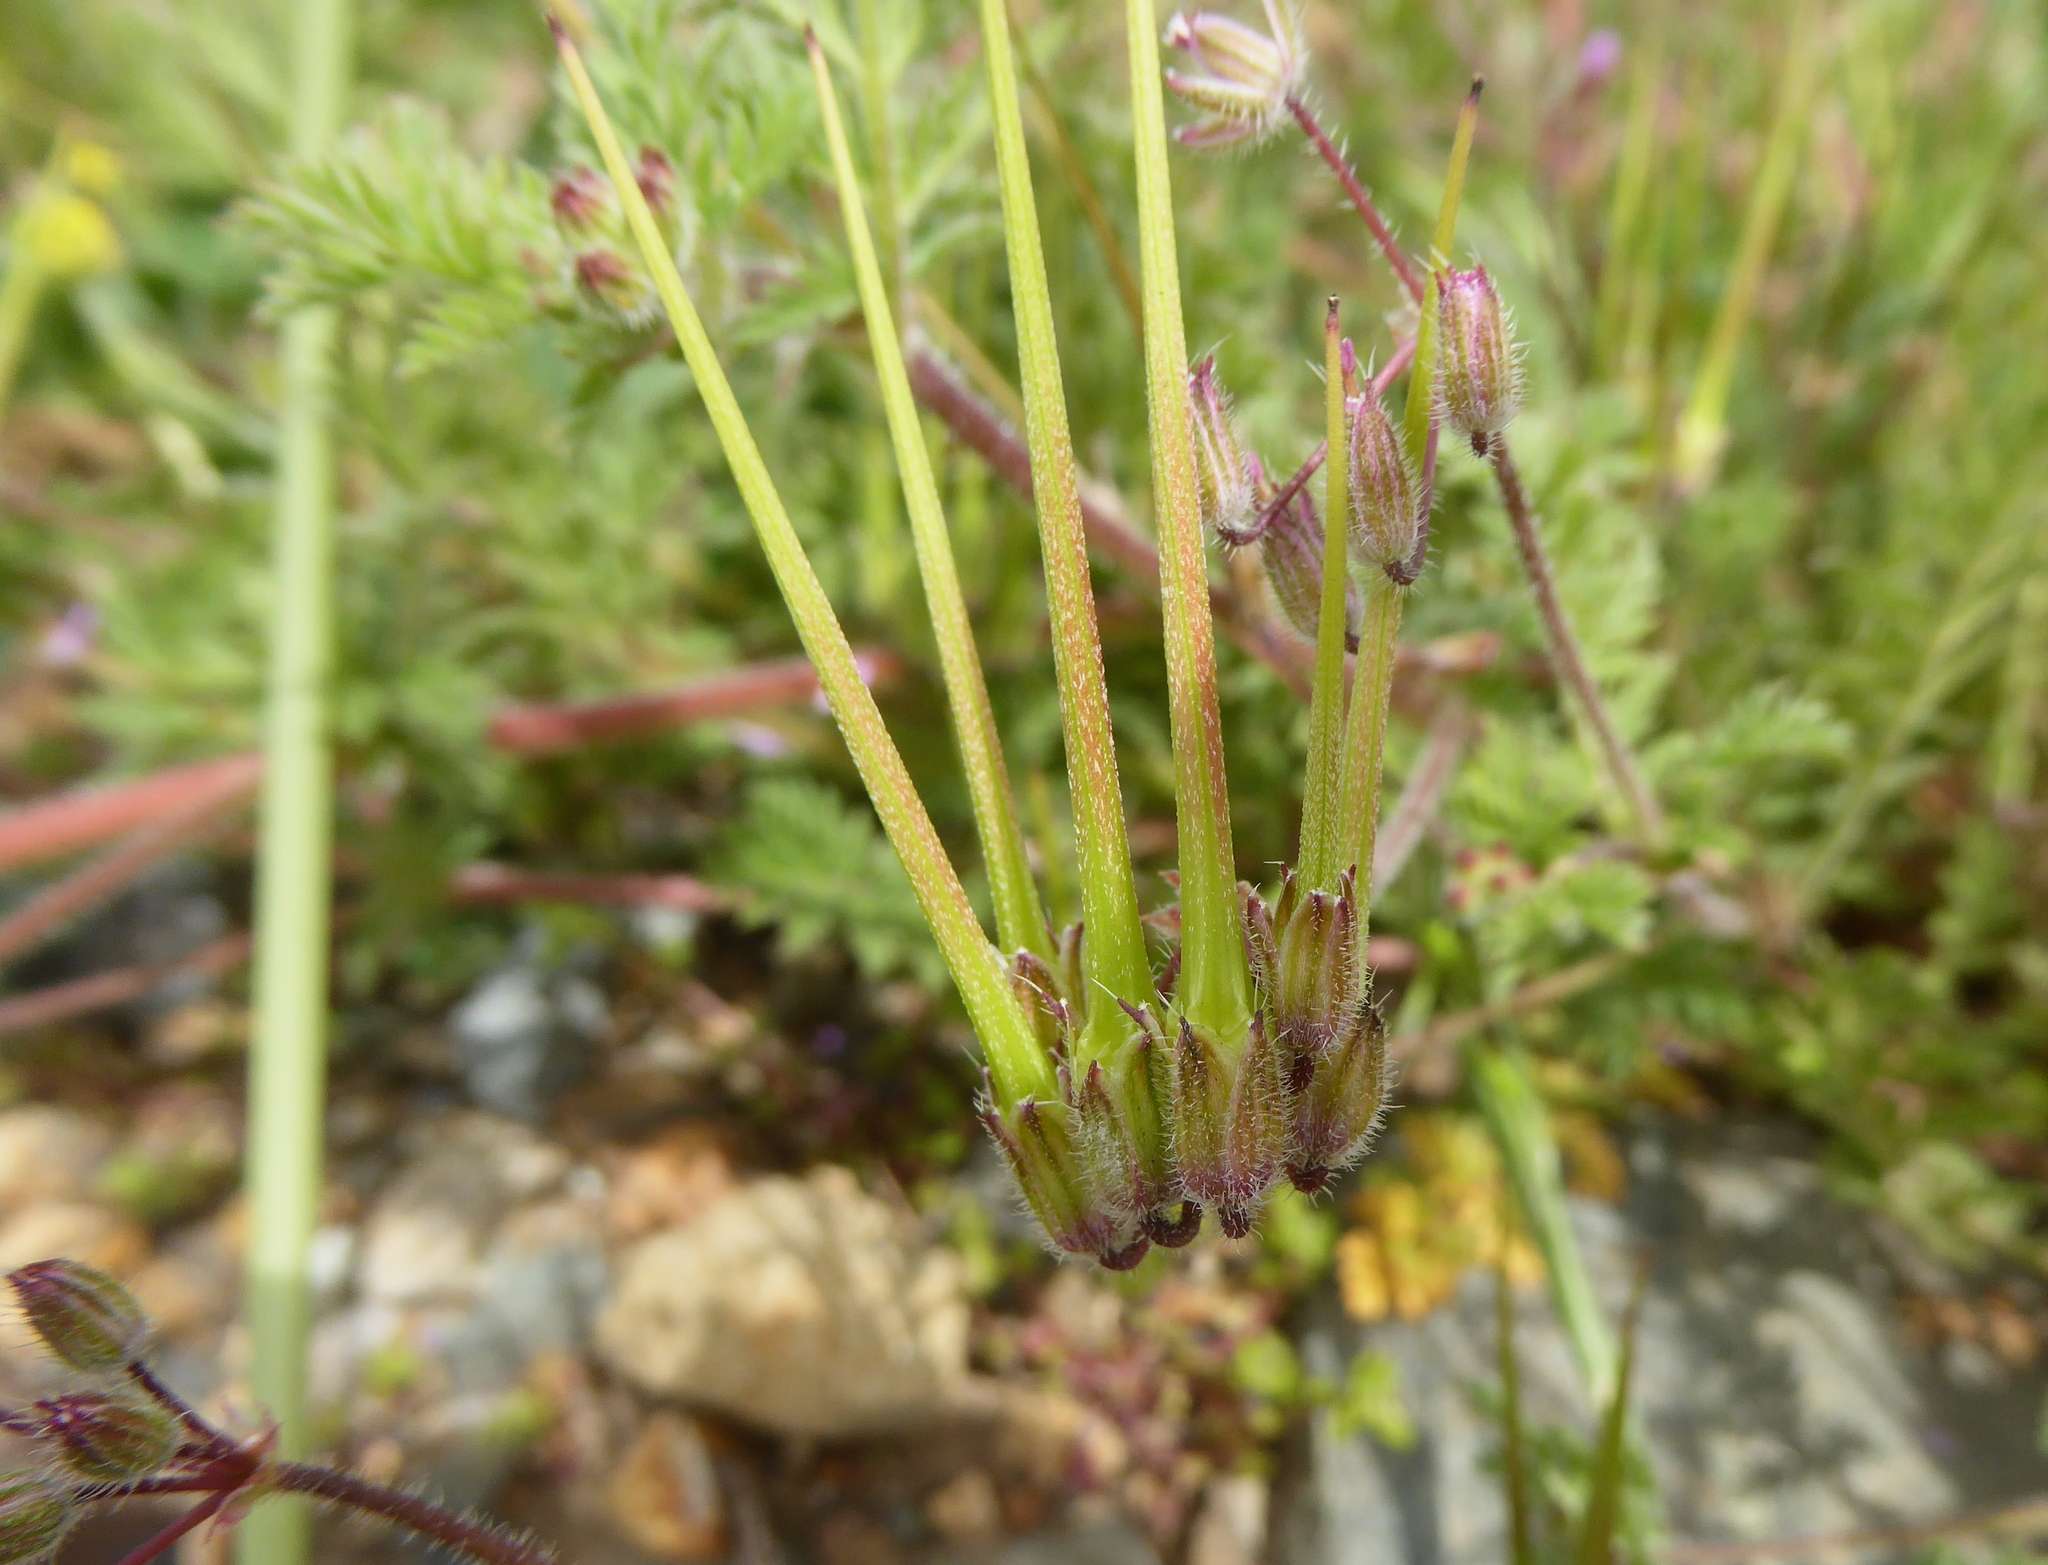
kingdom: Plantae
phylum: Tracheophyta
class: Magnoliopsida
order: Geraniales
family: Geraniaceae
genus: Erodium
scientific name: Erodium cicutarium
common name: Common stork's-bill
